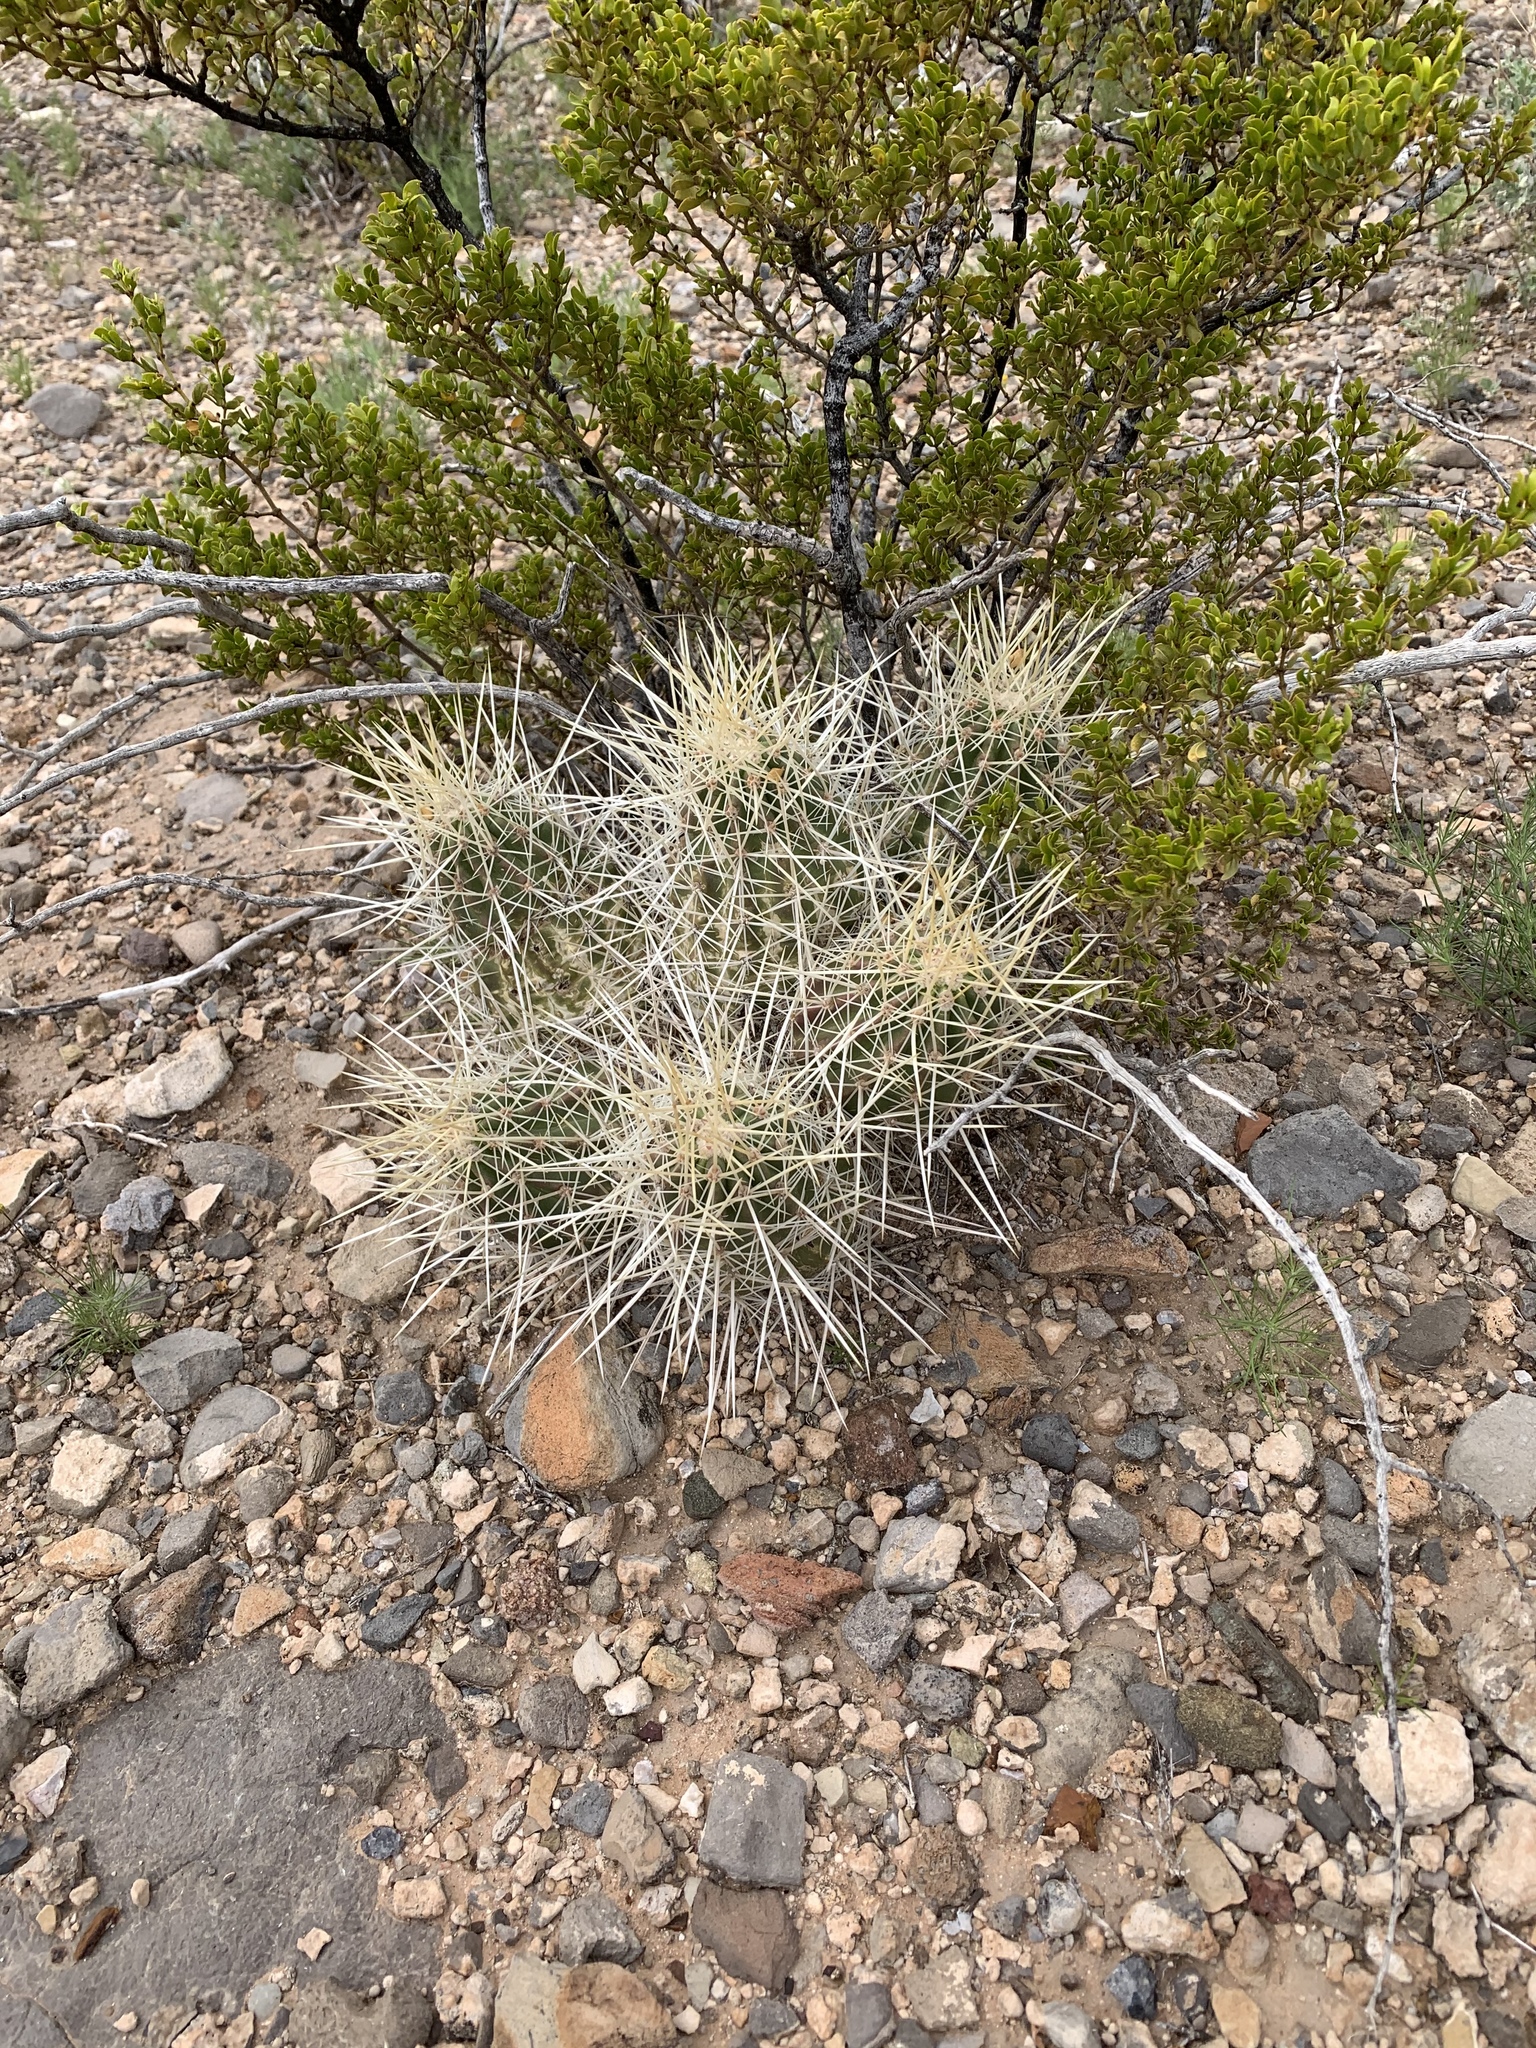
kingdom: Plantae
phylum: Tracheophyta
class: Magnoliopsida
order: Caryophyllales
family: Cactaceae
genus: Echinocereus
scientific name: Echinocereus stramineus
